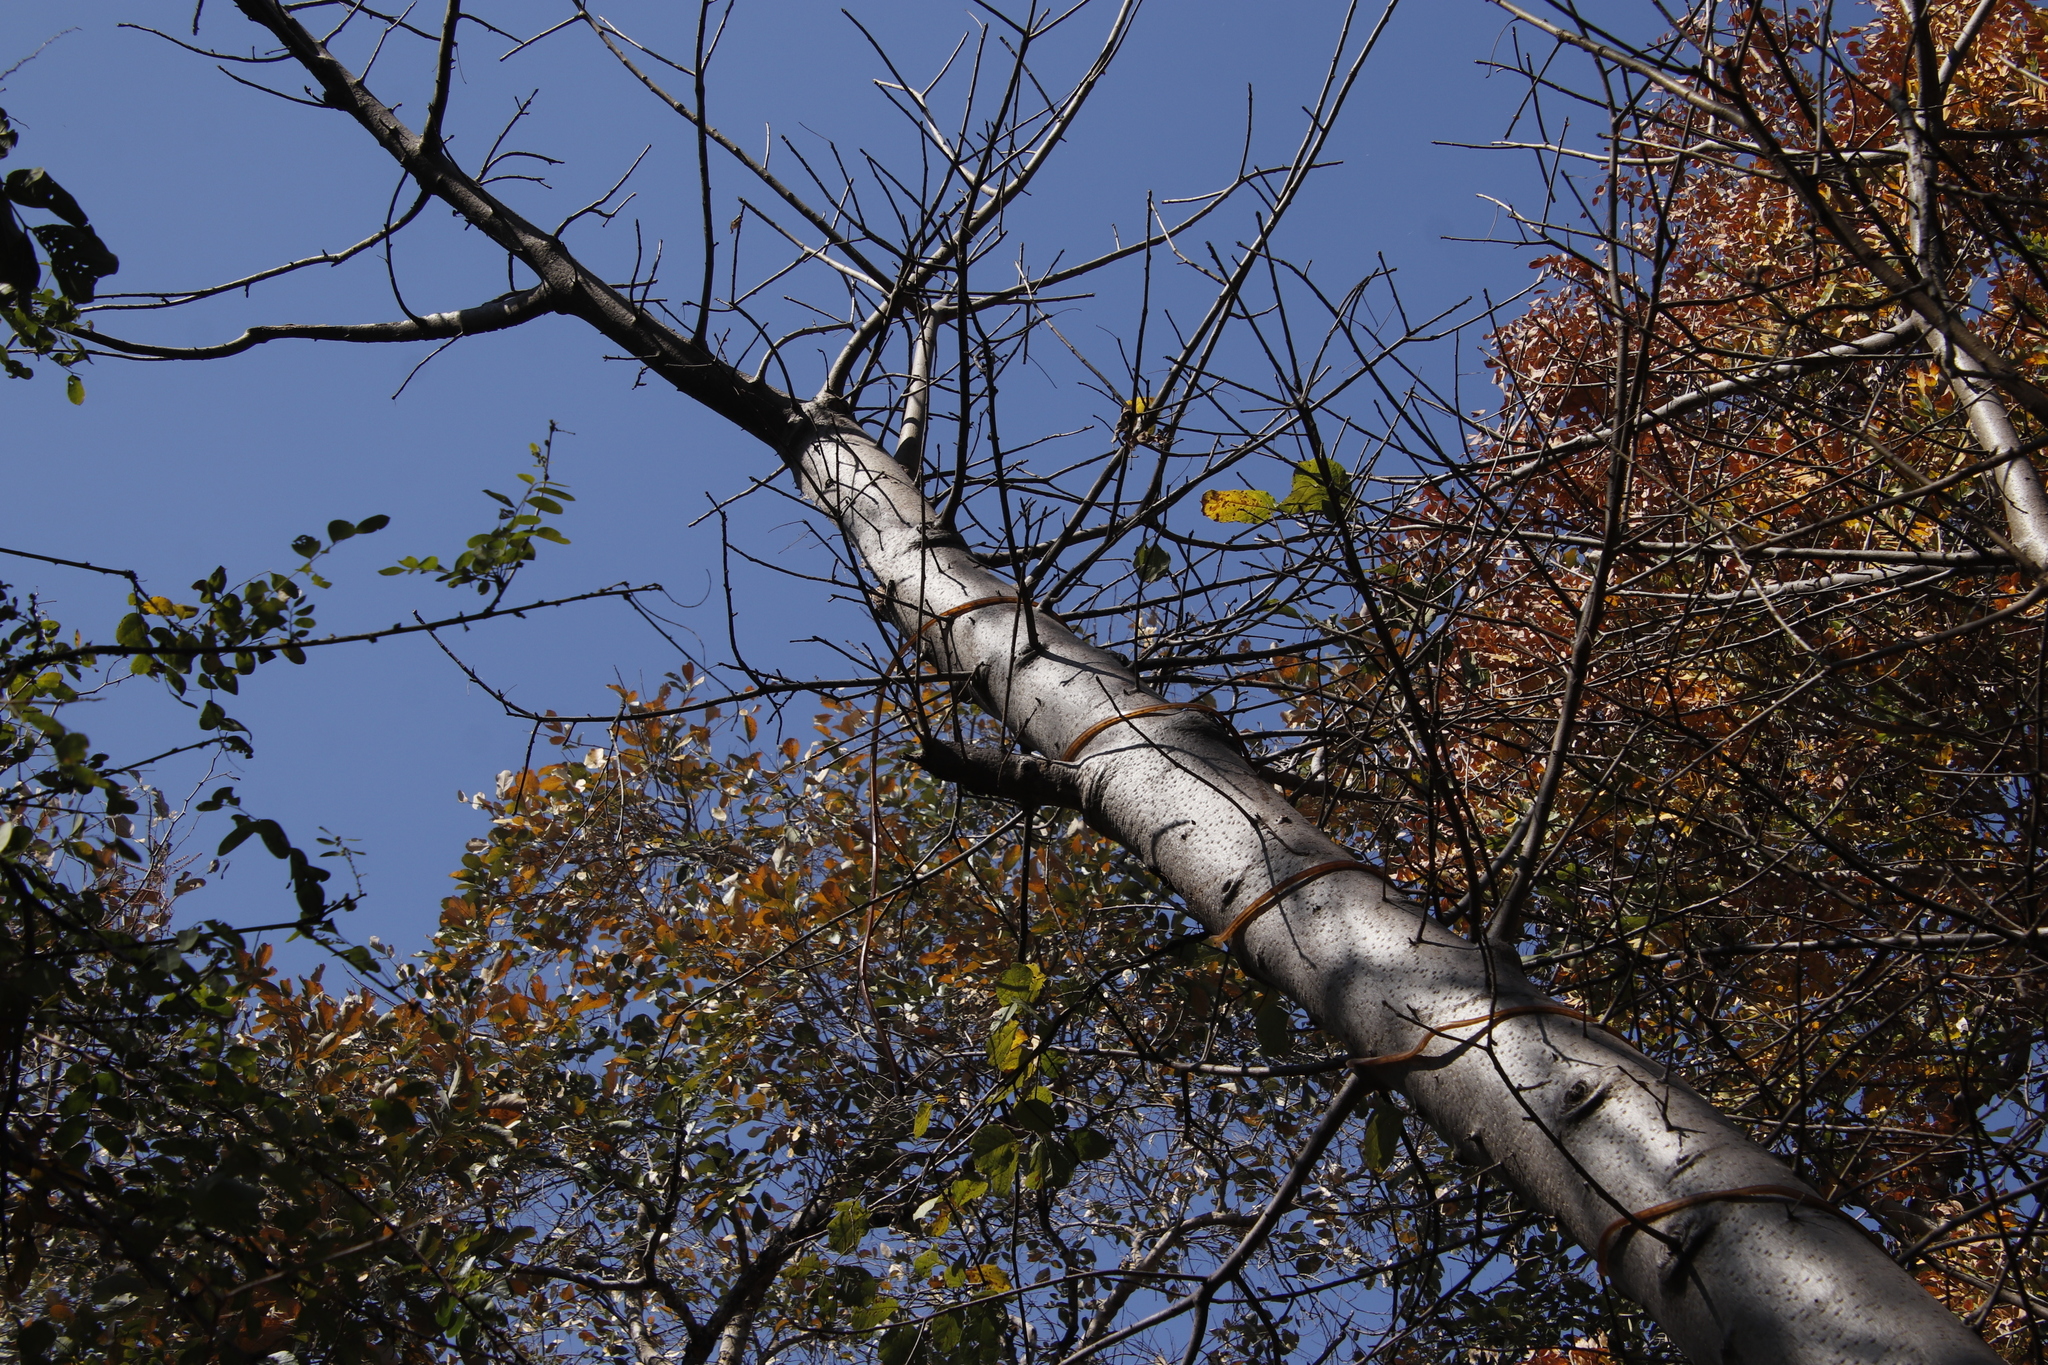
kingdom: Plantae
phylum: Tracheophyta
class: Magnoliopsida
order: Malvales
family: Malvaceae
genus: Adansonia
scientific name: Adansonia digitata
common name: Dead-rat-tree
